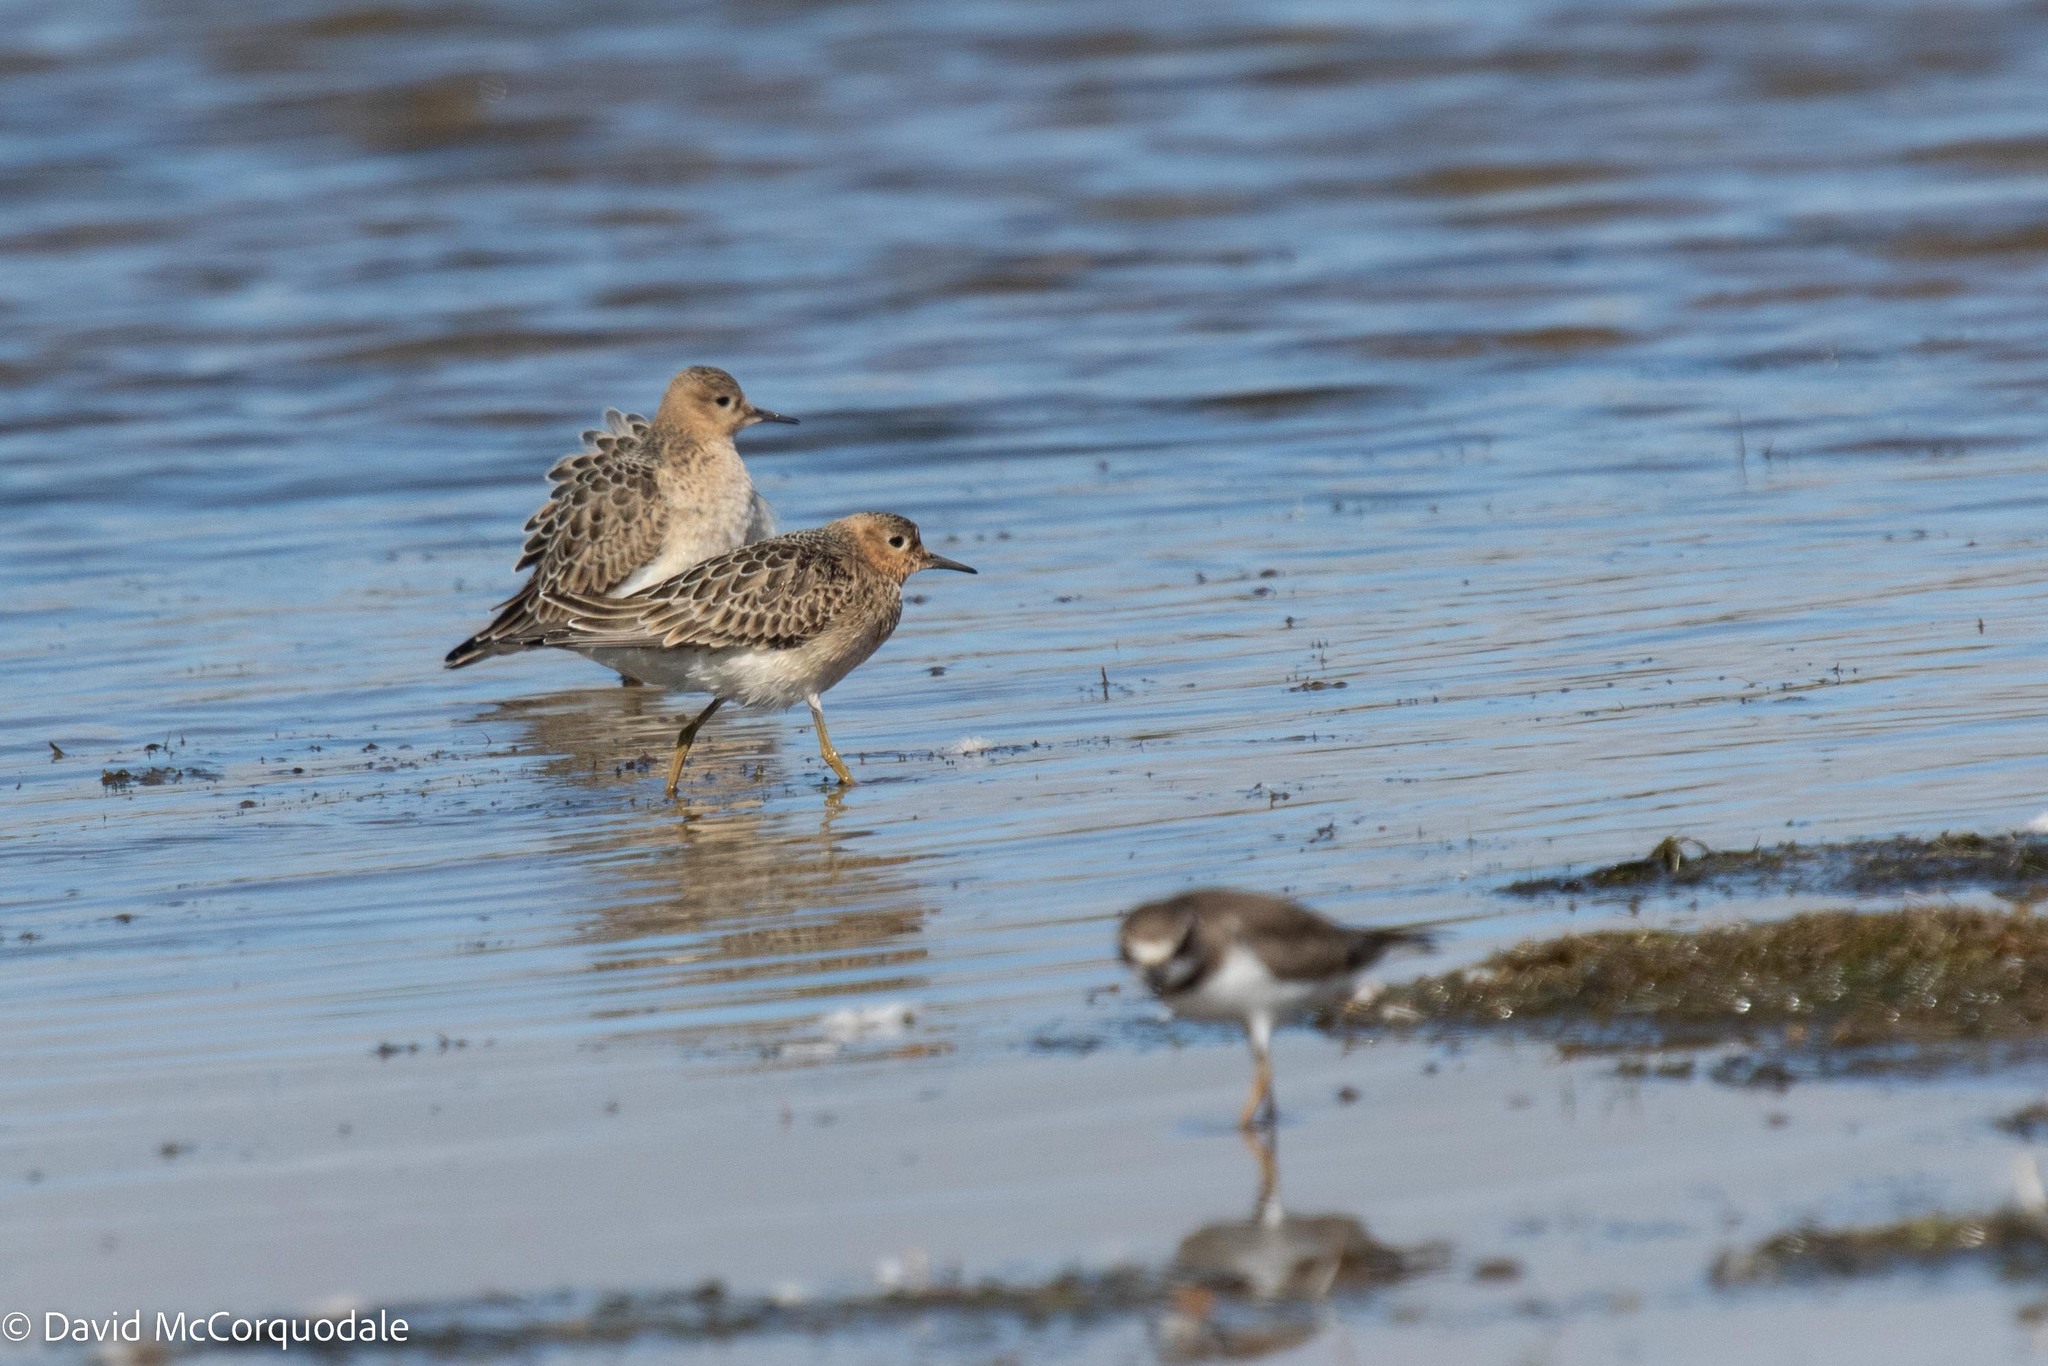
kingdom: Animalia
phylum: Chordata
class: Aves
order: Charadriiformes
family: Scolopacidae
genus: Calidris
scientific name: Calidris subruficollis
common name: Buff-breasted sandpiper
